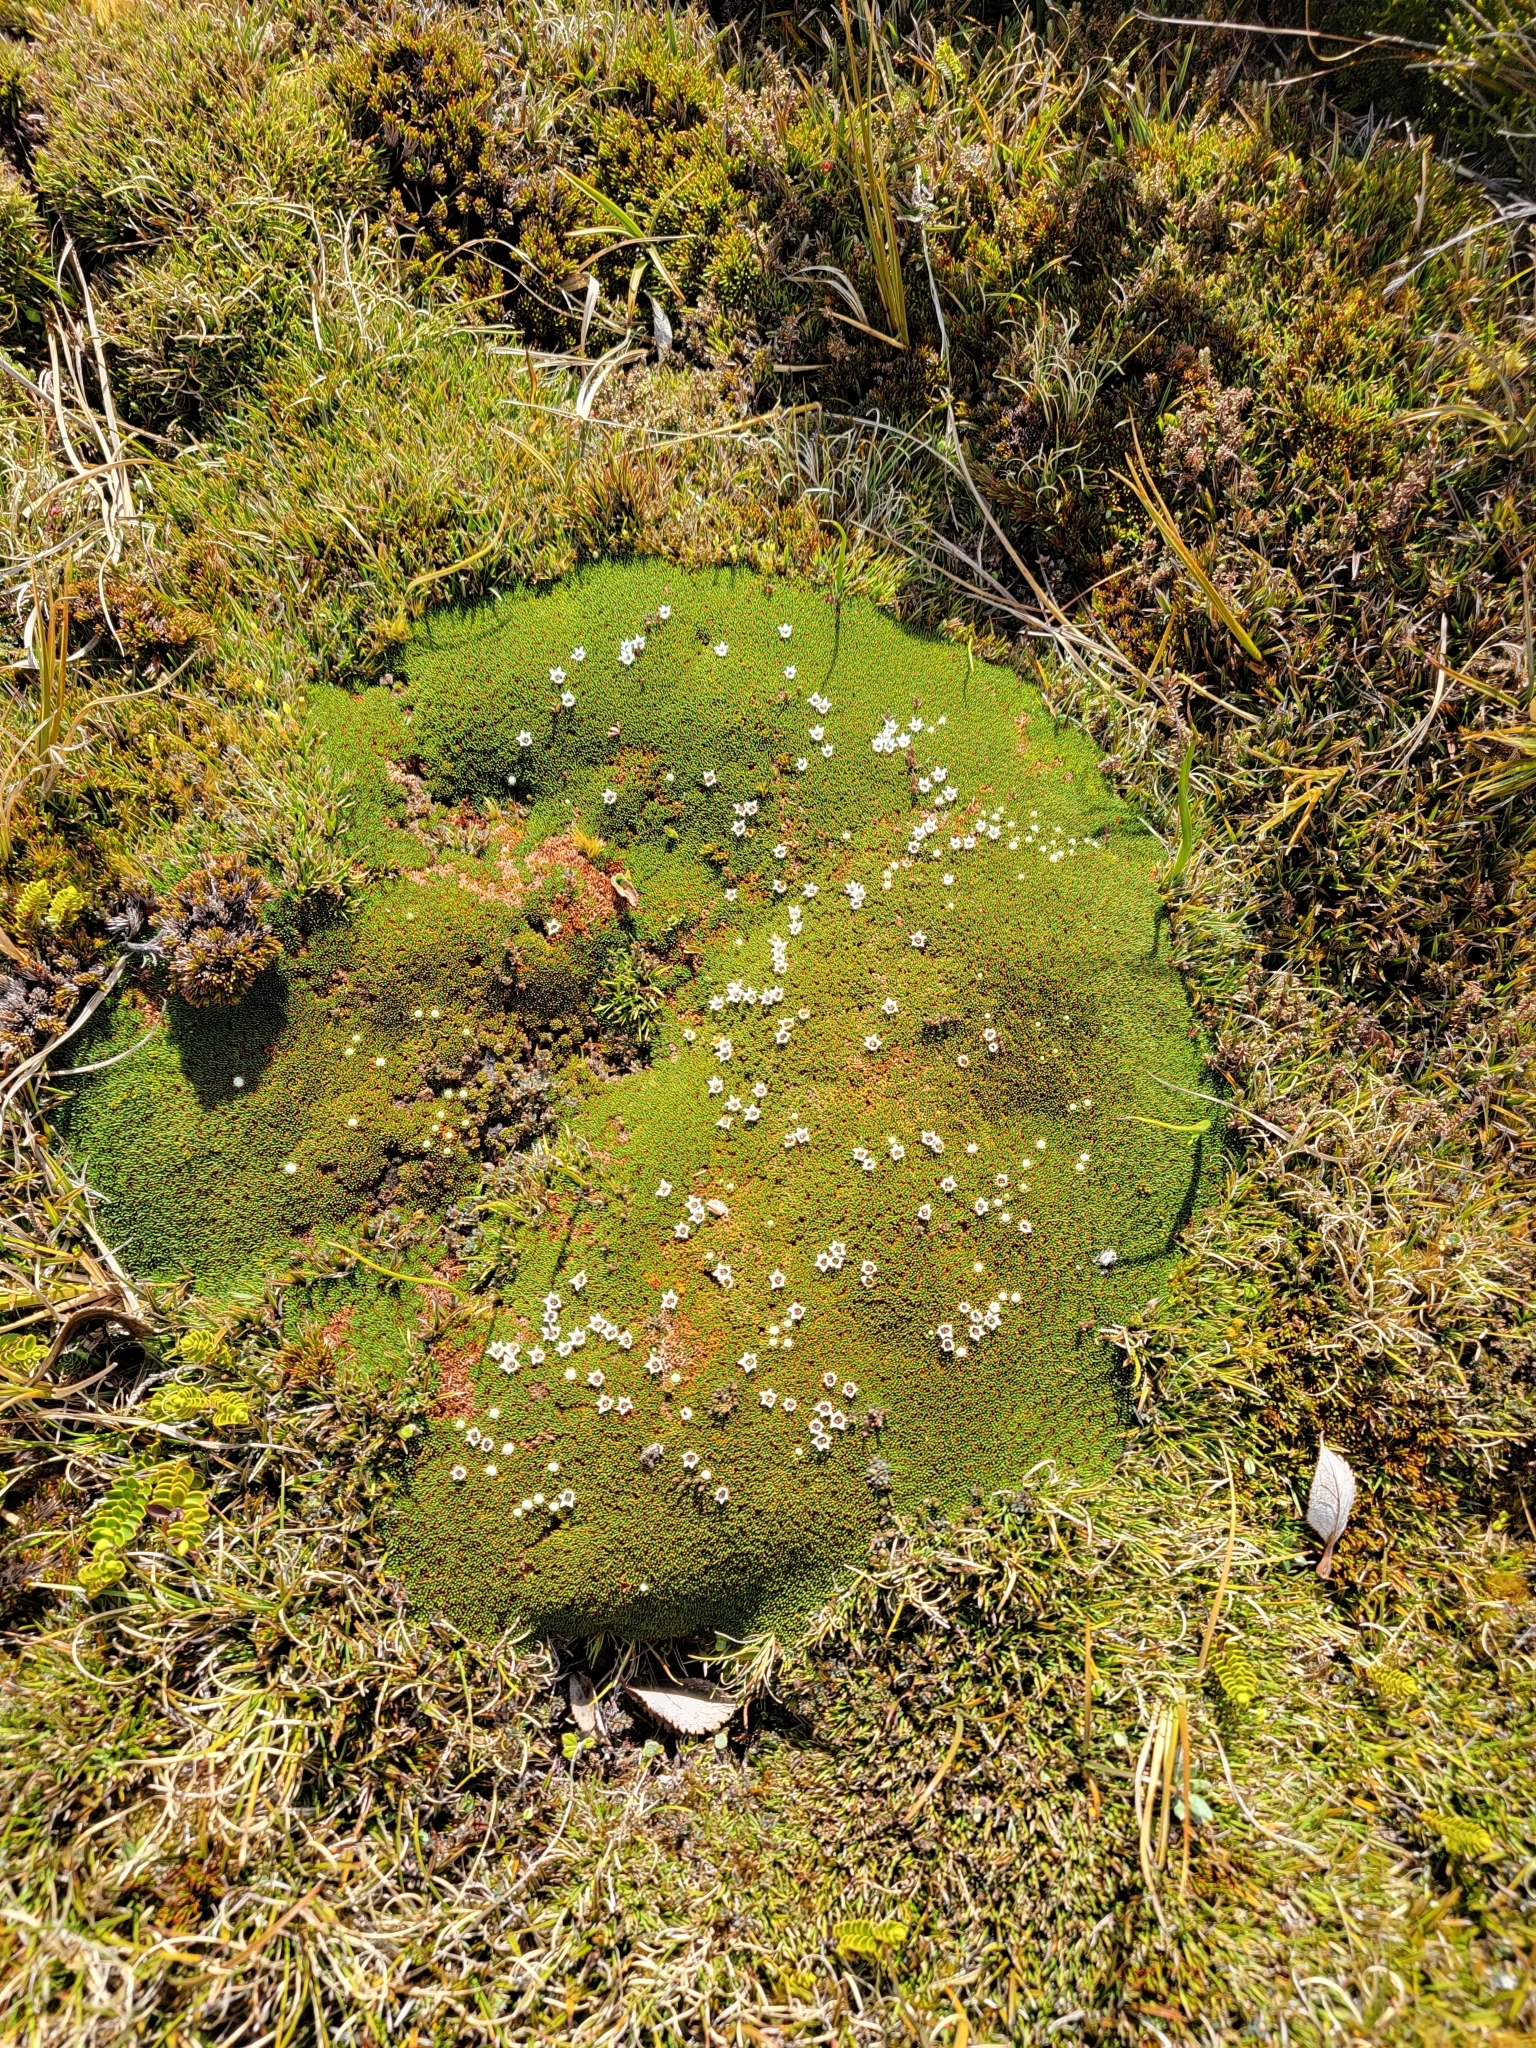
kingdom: Plantae
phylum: Tracheophyta
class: Magnoliopsida
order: Asterales
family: Stylidiaceae
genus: Donatia
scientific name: Donatia novae-zelandiae
